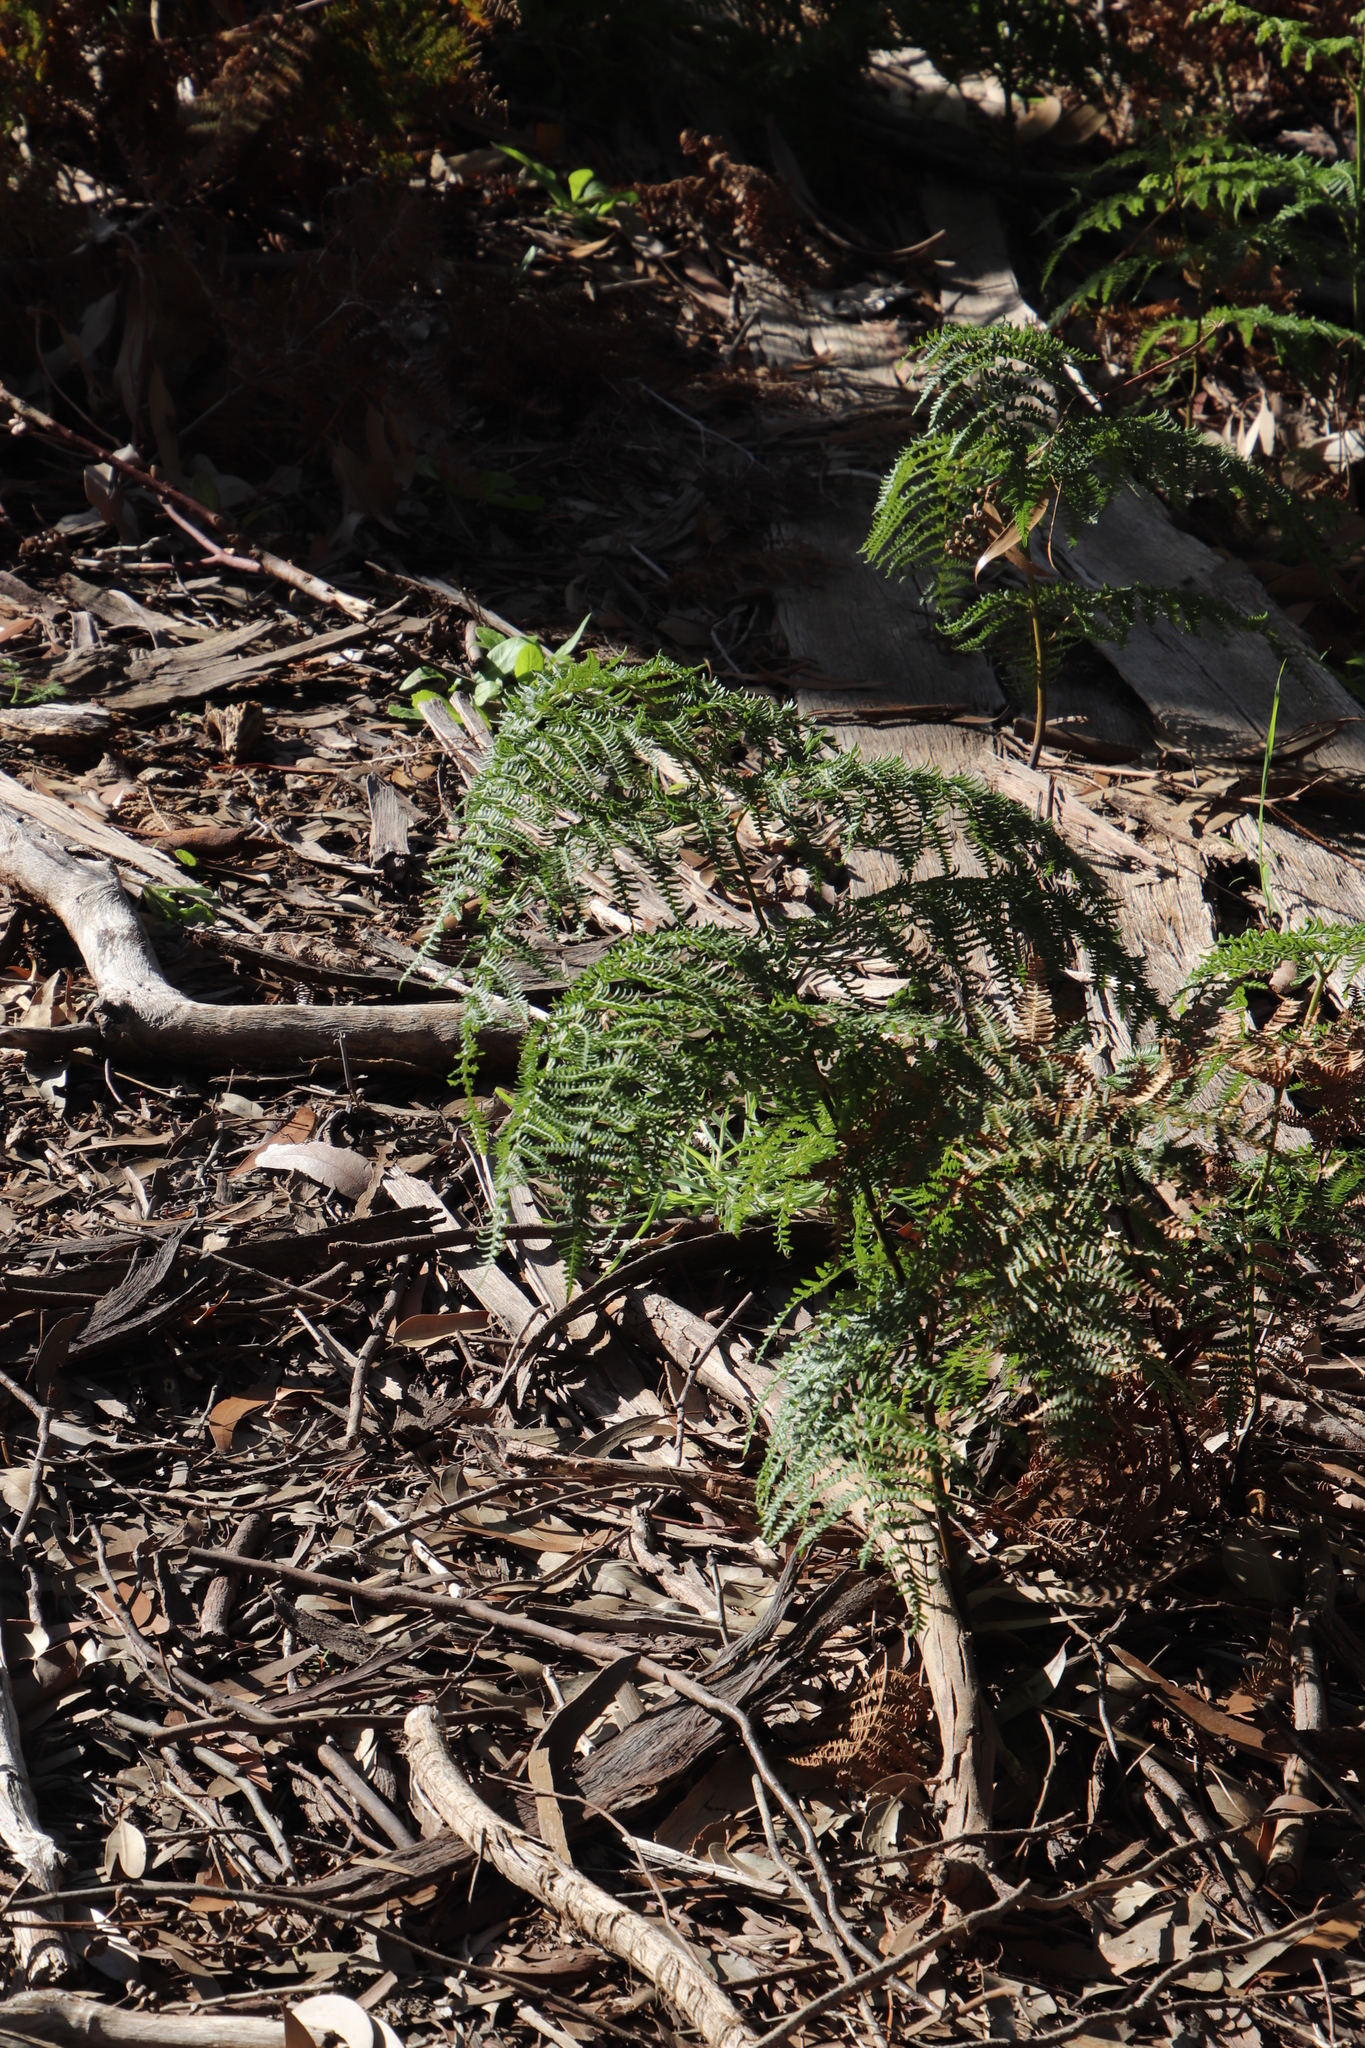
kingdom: Plantae
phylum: Tracheophyta
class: Polypodiopsida
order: Polypodiales
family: Dennstaedtiaceae
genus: Pteridium
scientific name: Pteridium aquilinum
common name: Bracken
